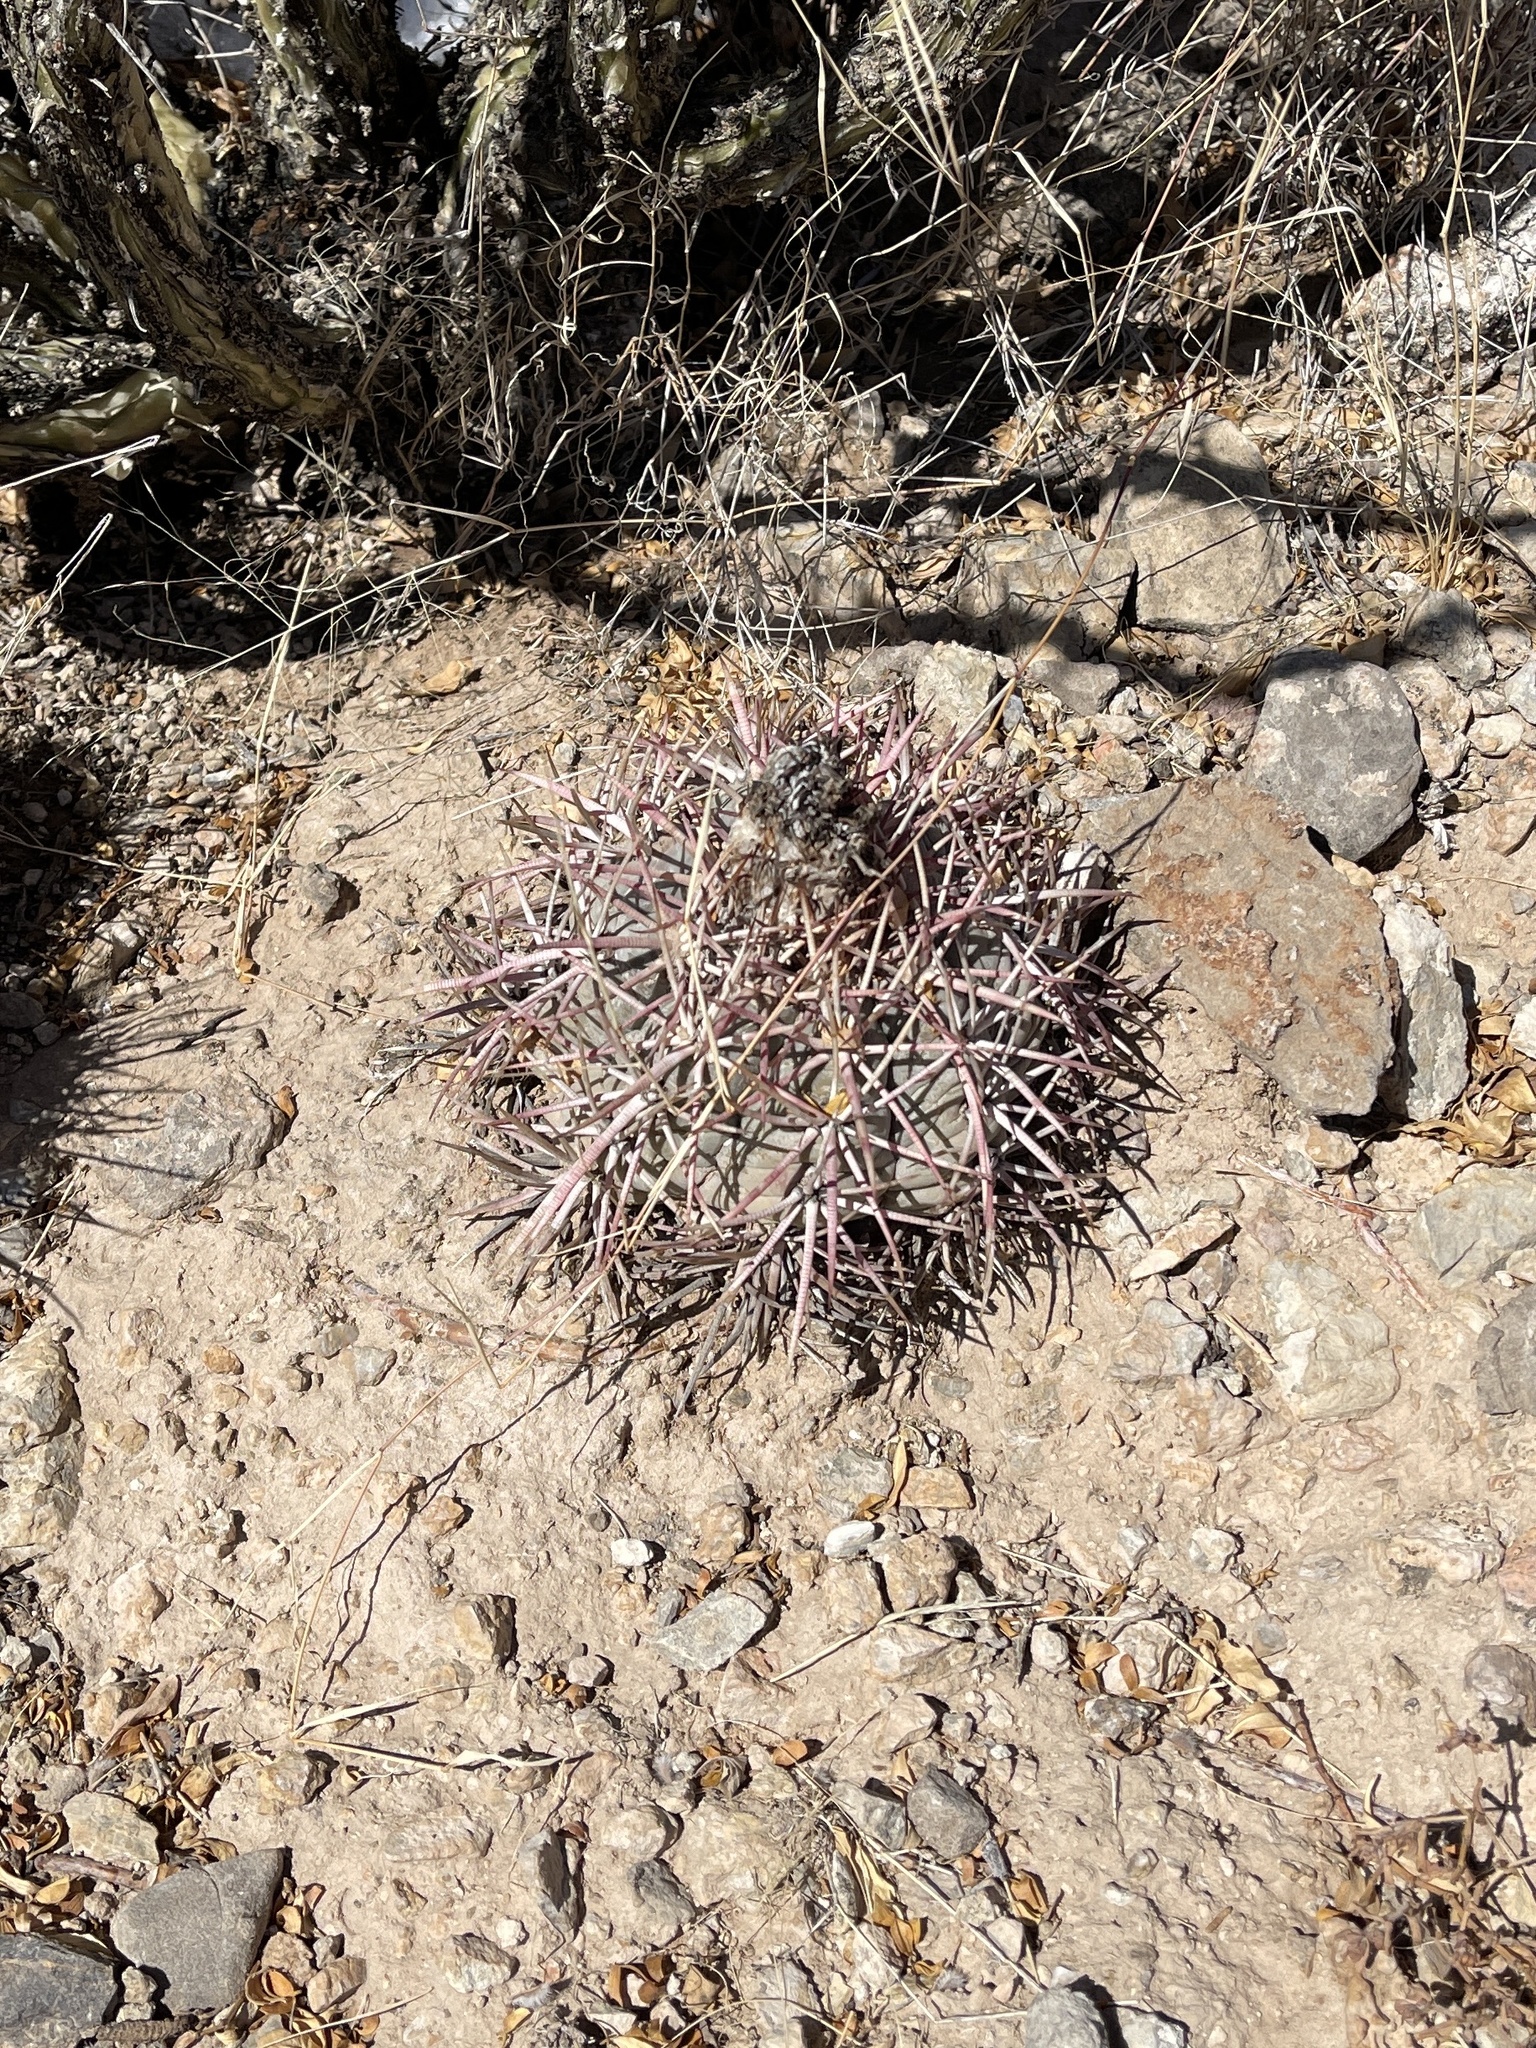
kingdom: Plantae
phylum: Tracheophyta
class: Magnoliopsida
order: Caryophyllales
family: Cactaceae
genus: Echinocactus
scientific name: Echinocactus horizonthalonius
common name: Devilshead
